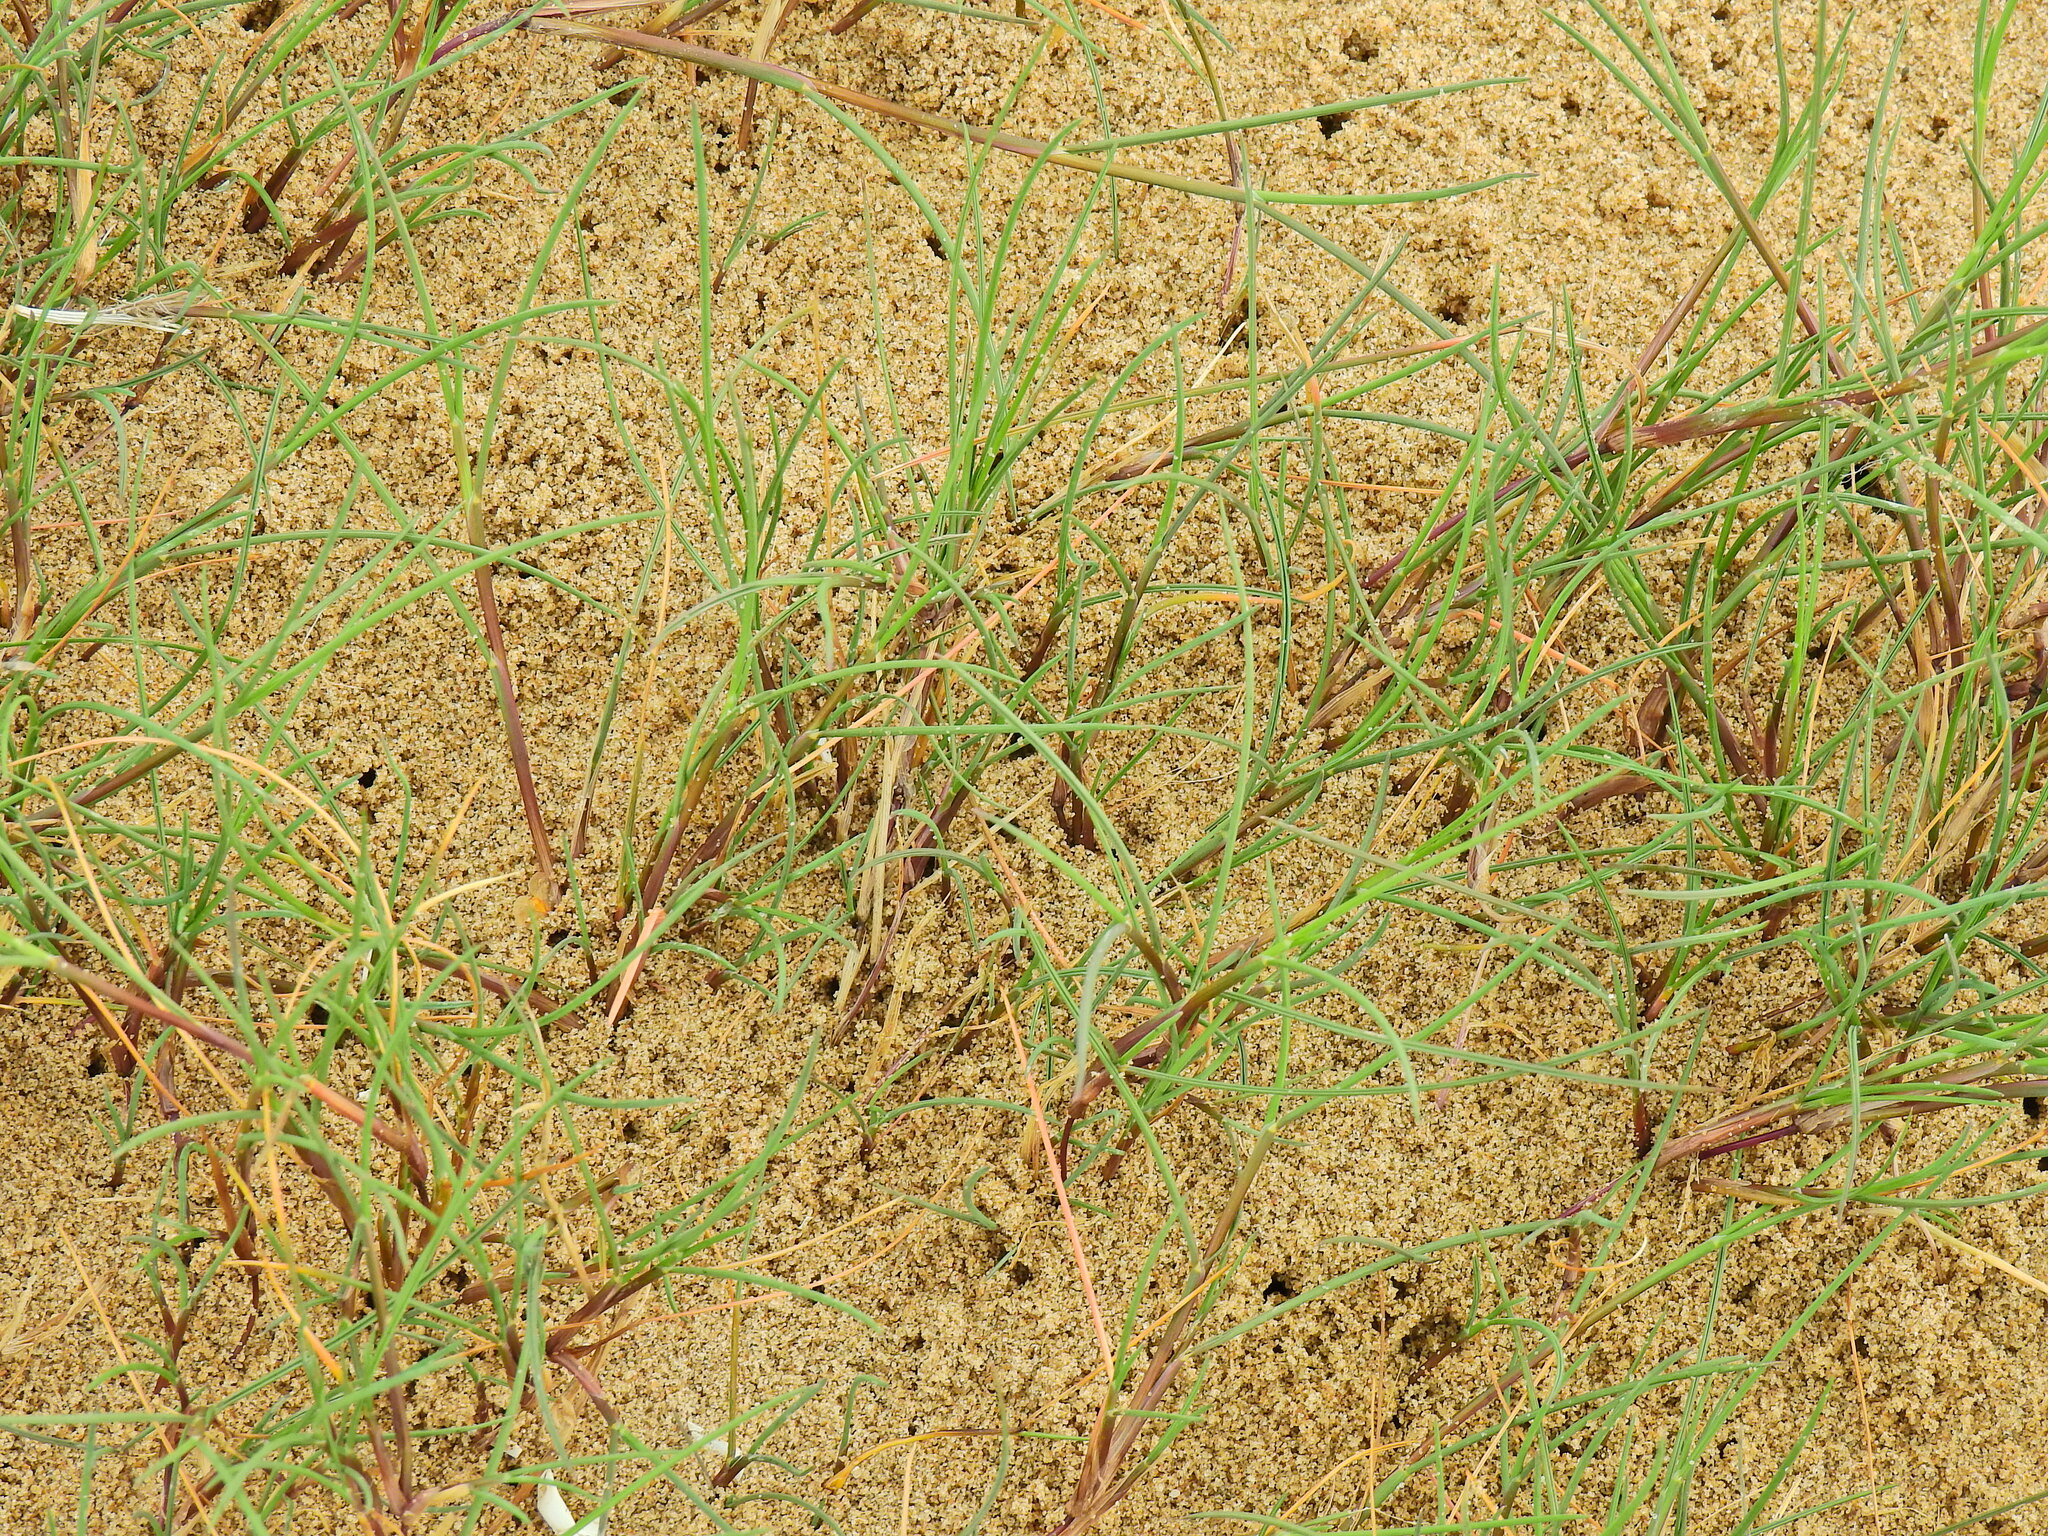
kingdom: Plantae
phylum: Tracheophyta
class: Liliopsida
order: Poales
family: Poaceae
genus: Agrostis
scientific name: Agrostis stolonifera
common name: Creeping bentgrass
